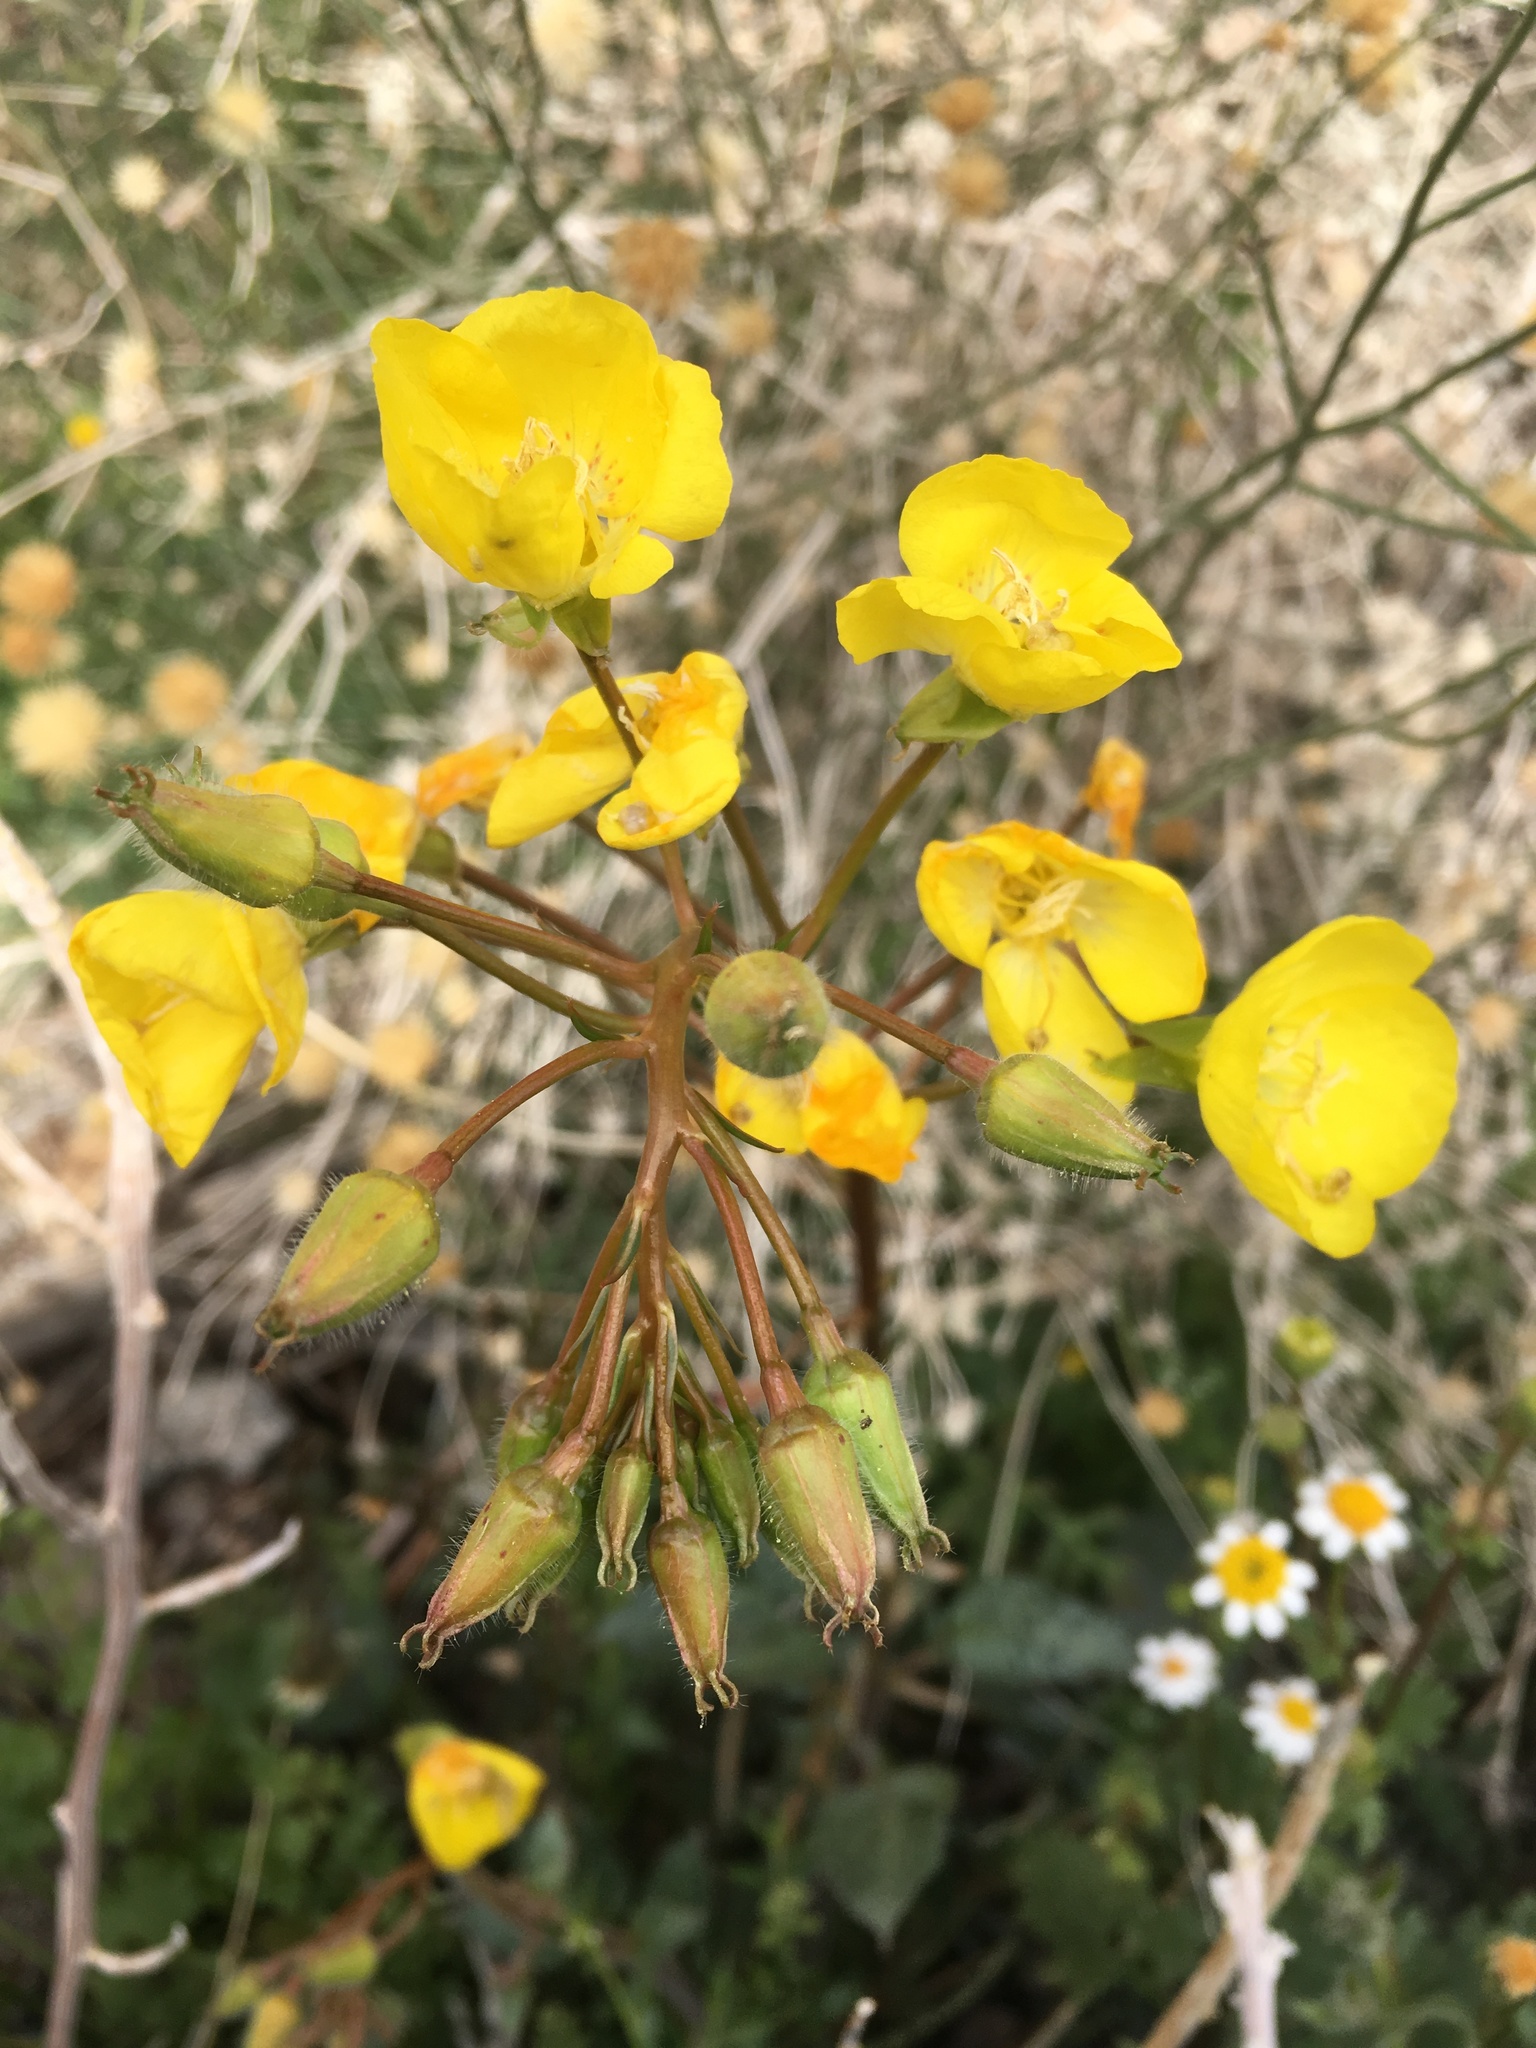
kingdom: Plantae
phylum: Tracheophyta
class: Magnoliopsida
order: Myrtales
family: Onagraceae
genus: Chylismia
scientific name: Chylismia brevipes
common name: Yellow cups
